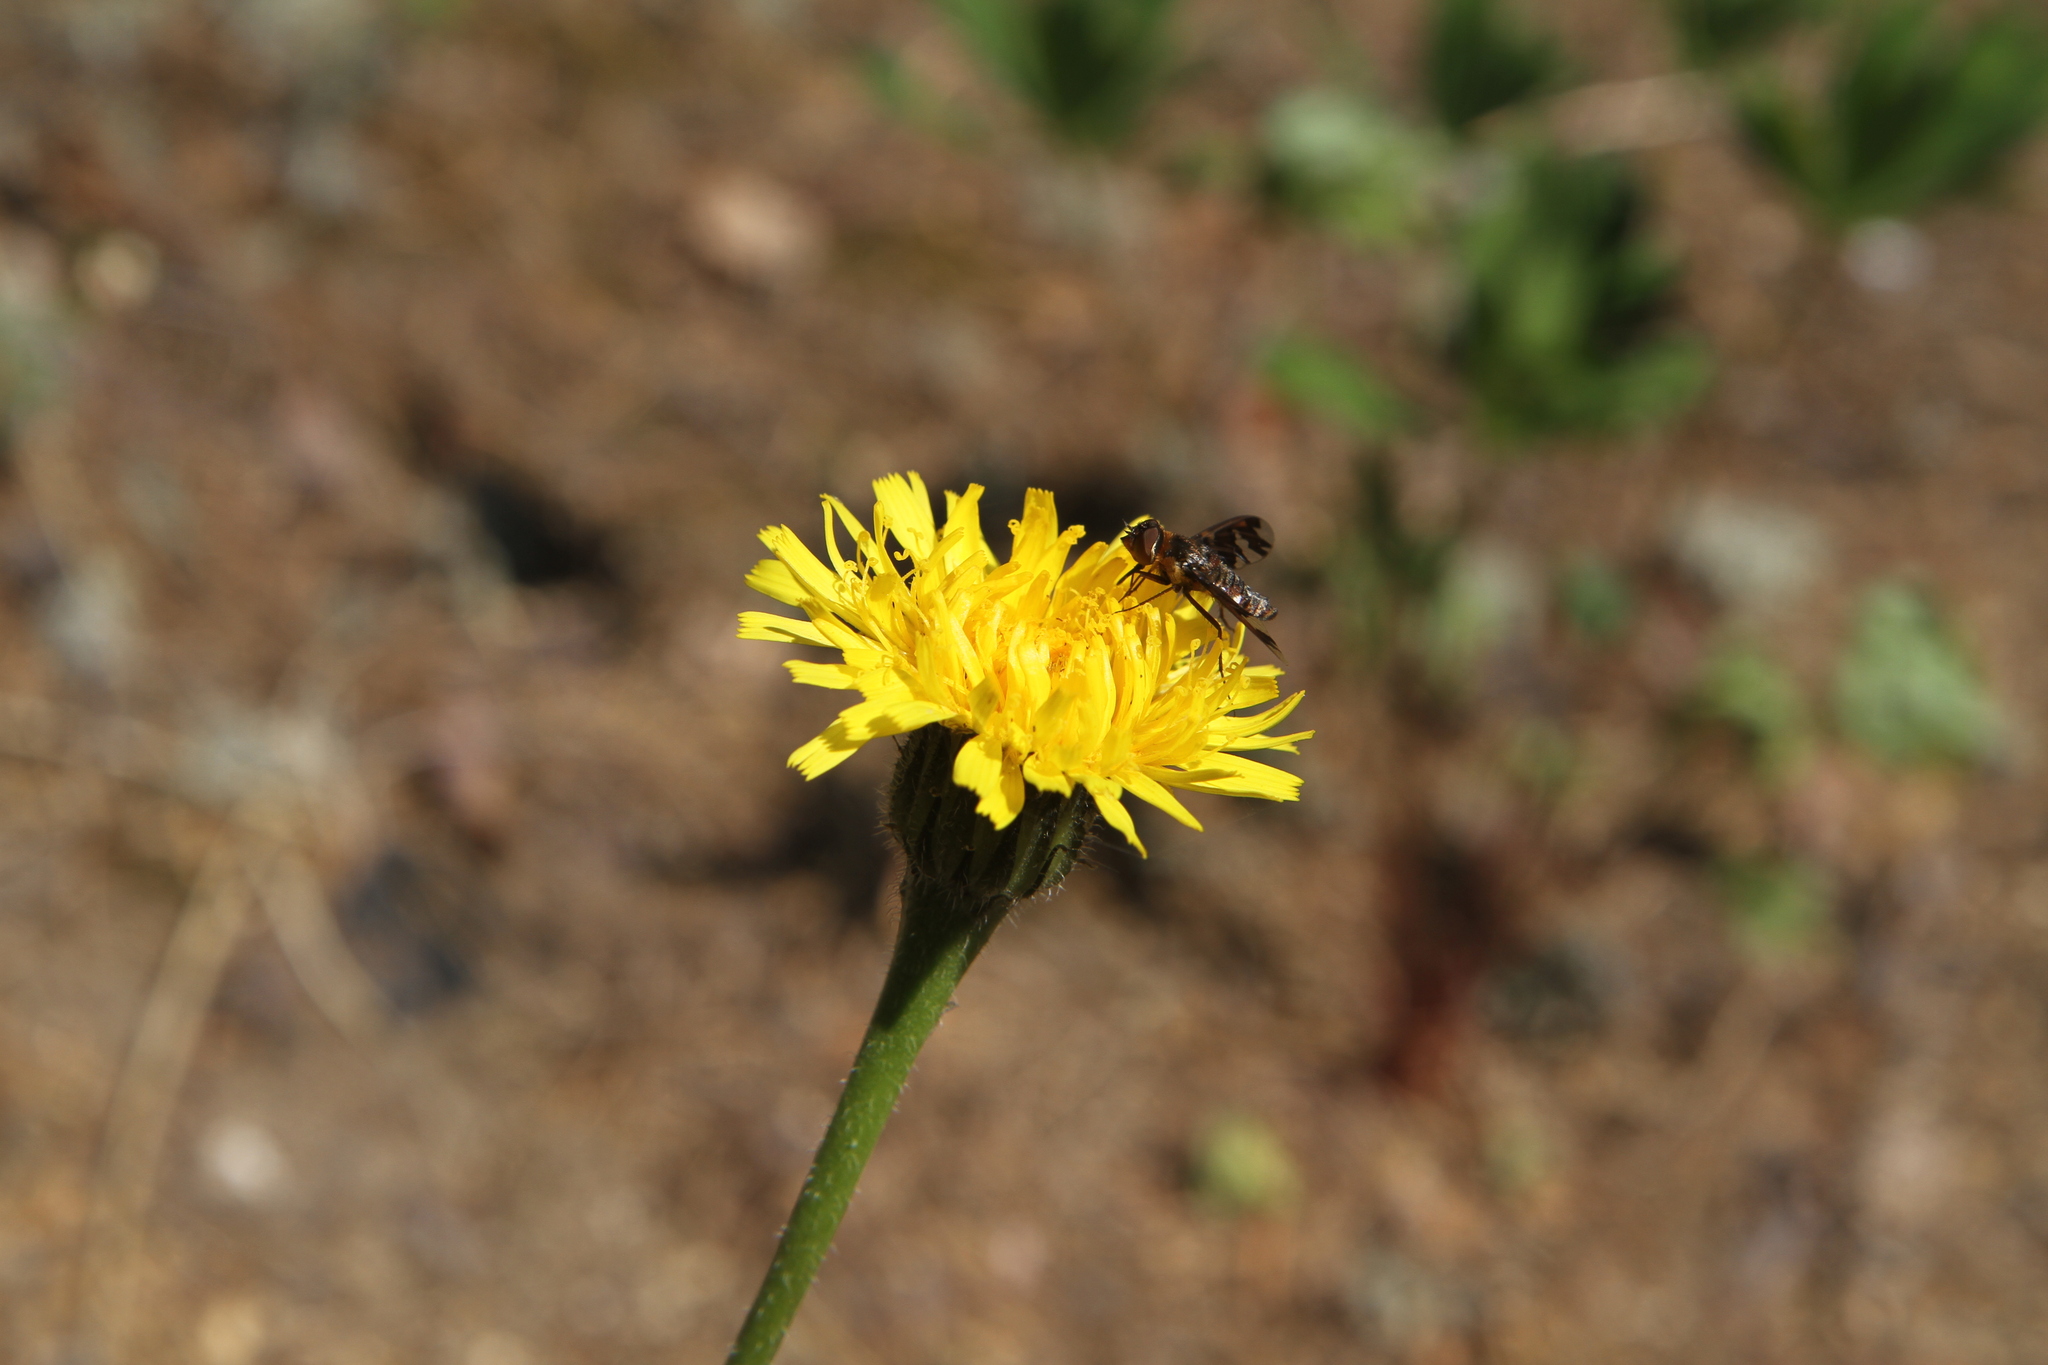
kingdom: Plantae
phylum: Tracheophyta
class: Magnoliopsida
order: Asterales
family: Asteraceae
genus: Trommsdorffia
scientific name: Trommsdorffia maculata
